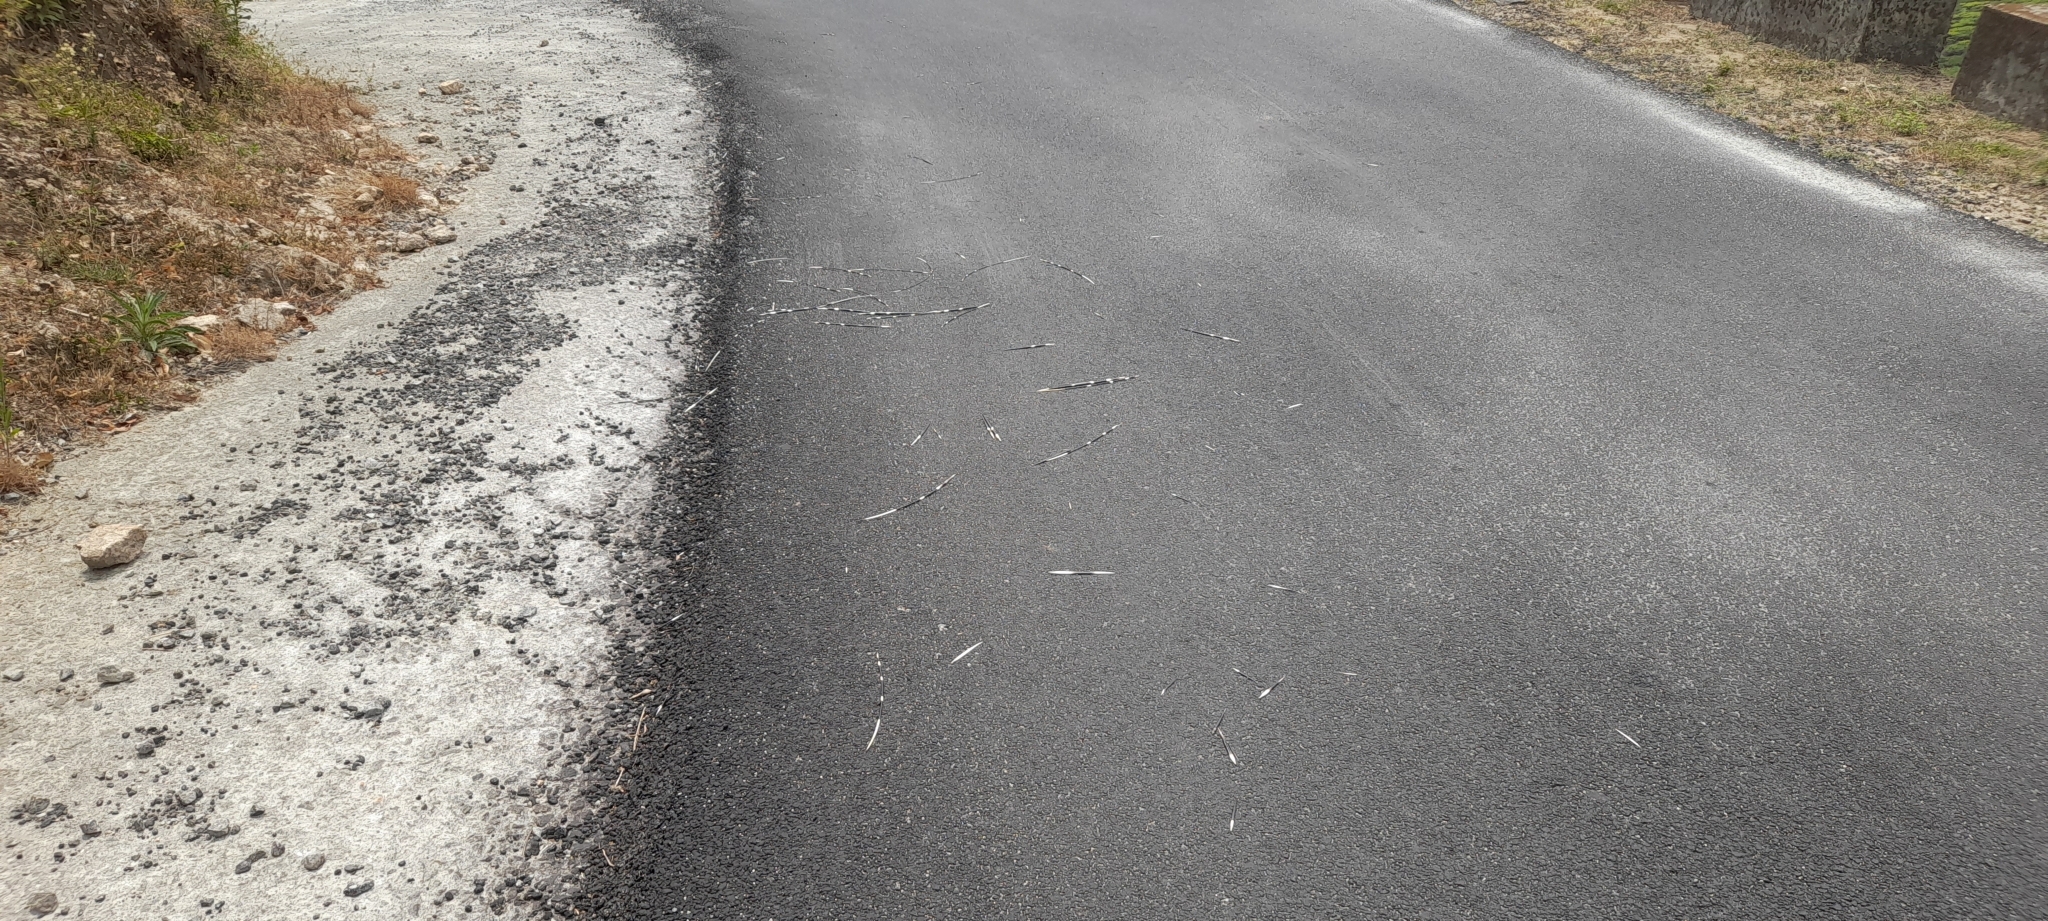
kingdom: Animalia
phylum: Chordata
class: Mammalia
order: Rodentia
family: Hystricidae
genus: Hystrix
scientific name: Hystrix indica
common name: Indian crested porcupine
